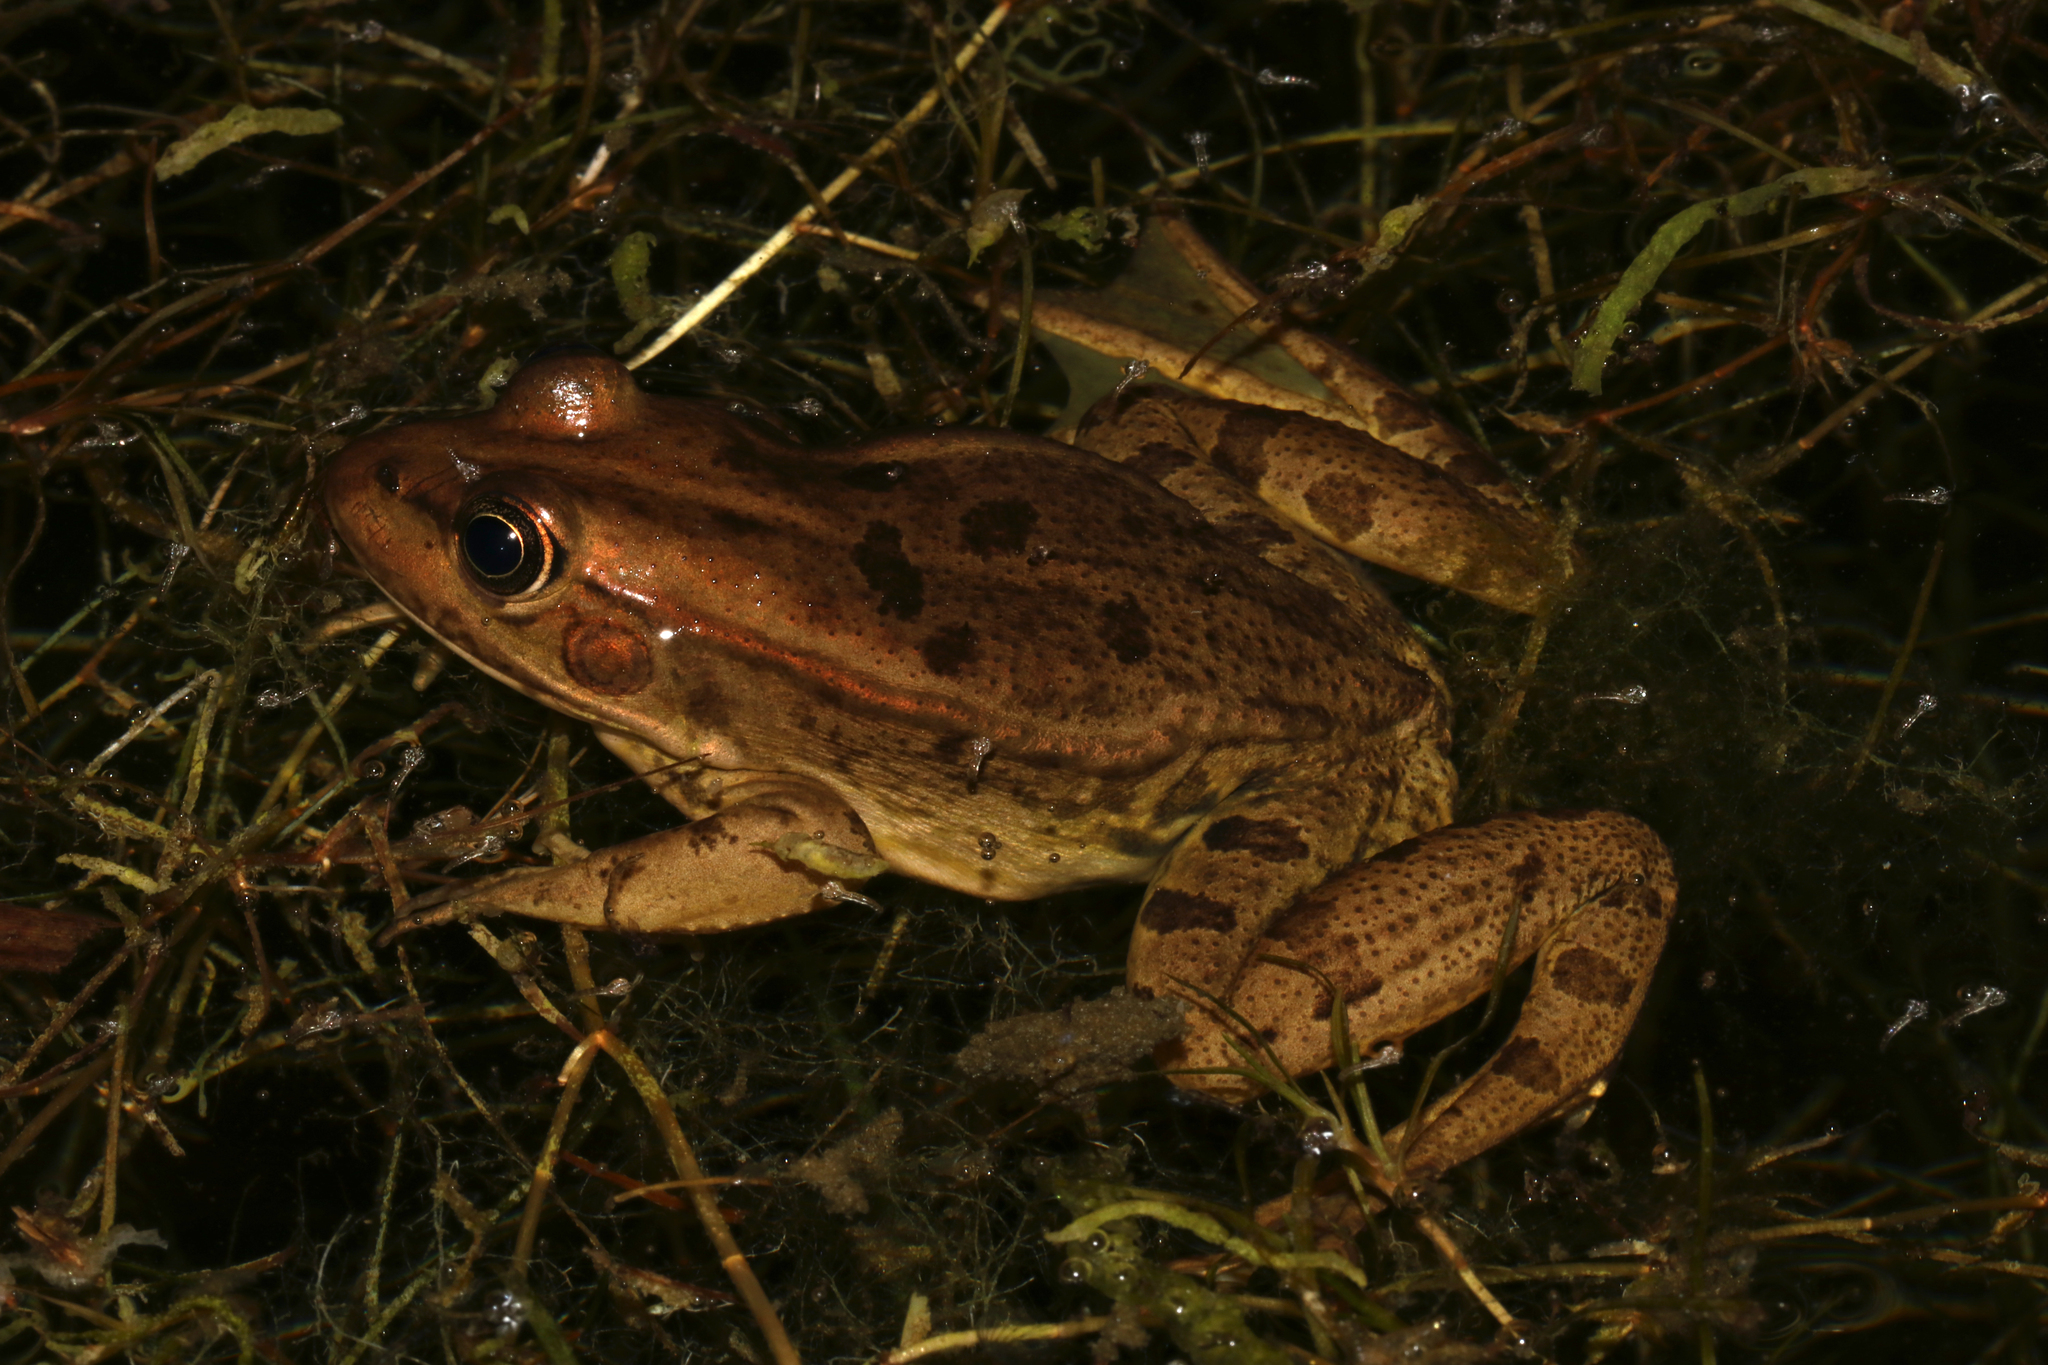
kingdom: Animalia
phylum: Chordata
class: Amphibia
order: Anura
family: Ranidae
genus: Pelophylax
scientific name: Pelophylax epeiroticus
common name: Epirus water frog
